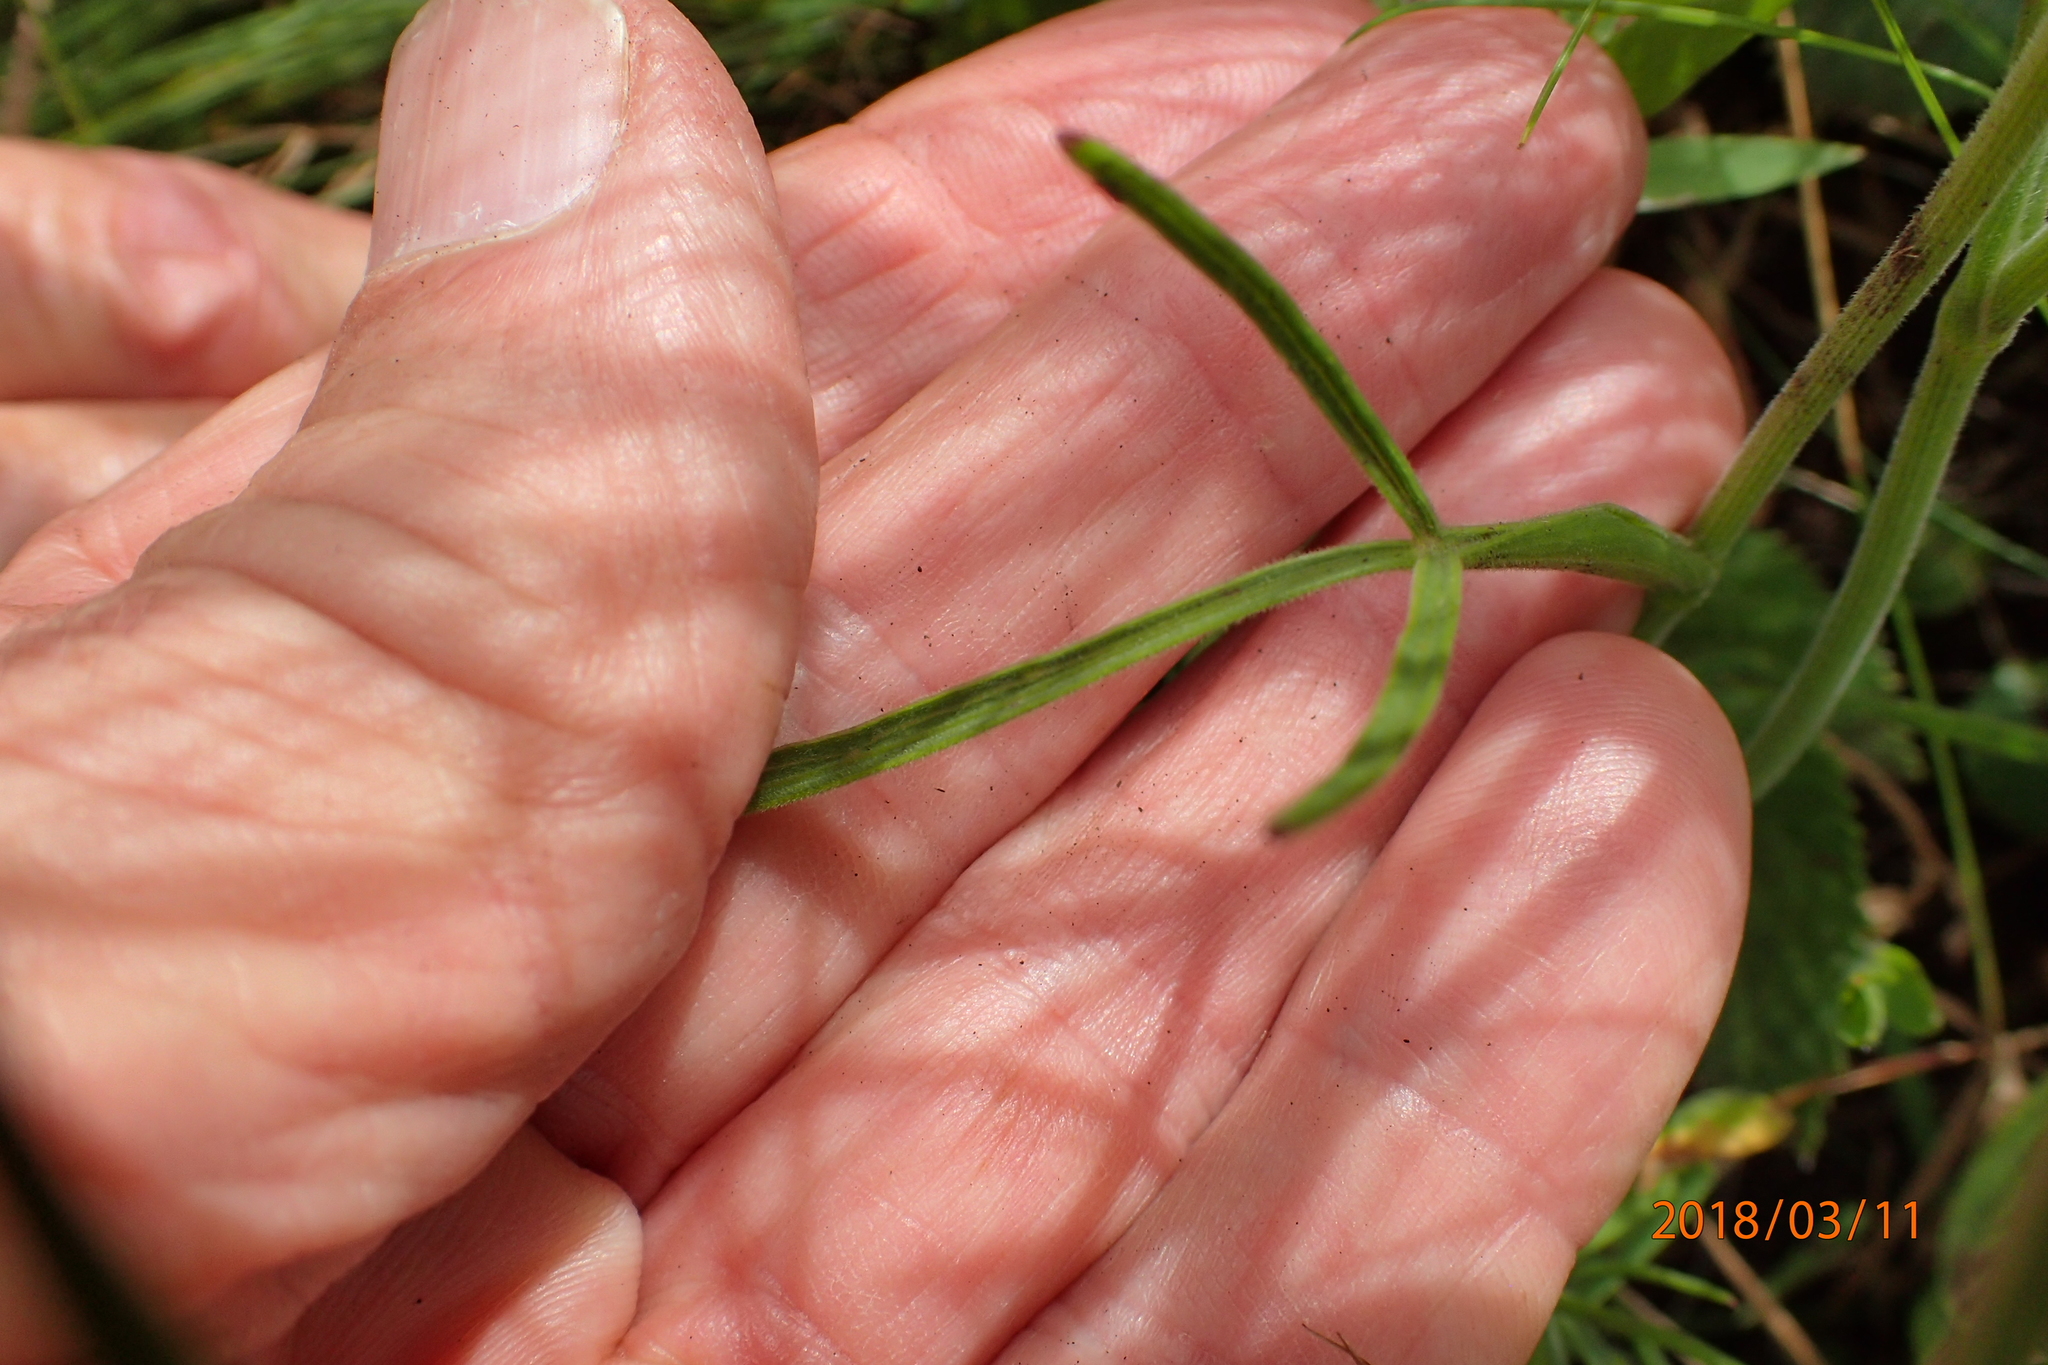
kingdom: Plantae
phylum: Tracheophyta
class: Magnoliopsida
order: Apiales
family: Apiaceae
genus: Pimpinella
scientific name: Pimpinella caffra
